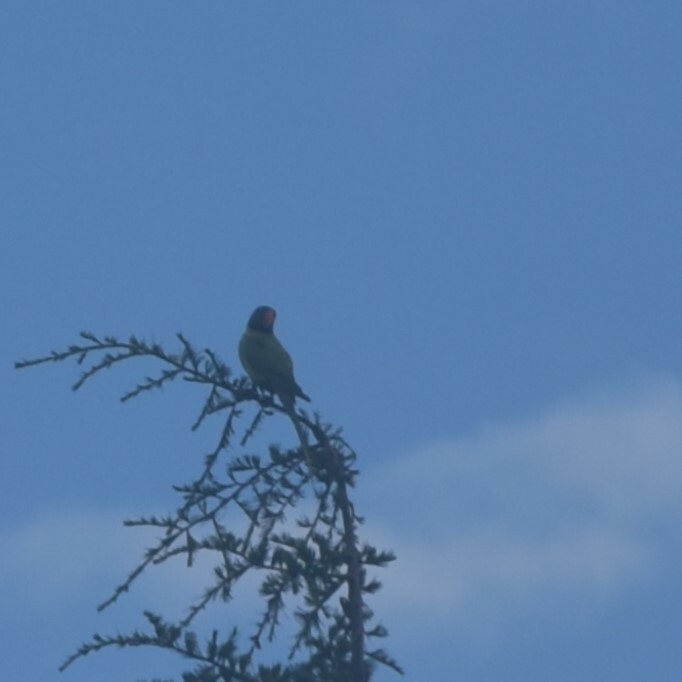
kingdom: Animalia
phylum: Chordata
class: Aves
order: Psittaciformes
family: Psittacidae
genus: Psittacula
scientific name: Psittacula himalayana
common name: Slaty-headed parakeet
